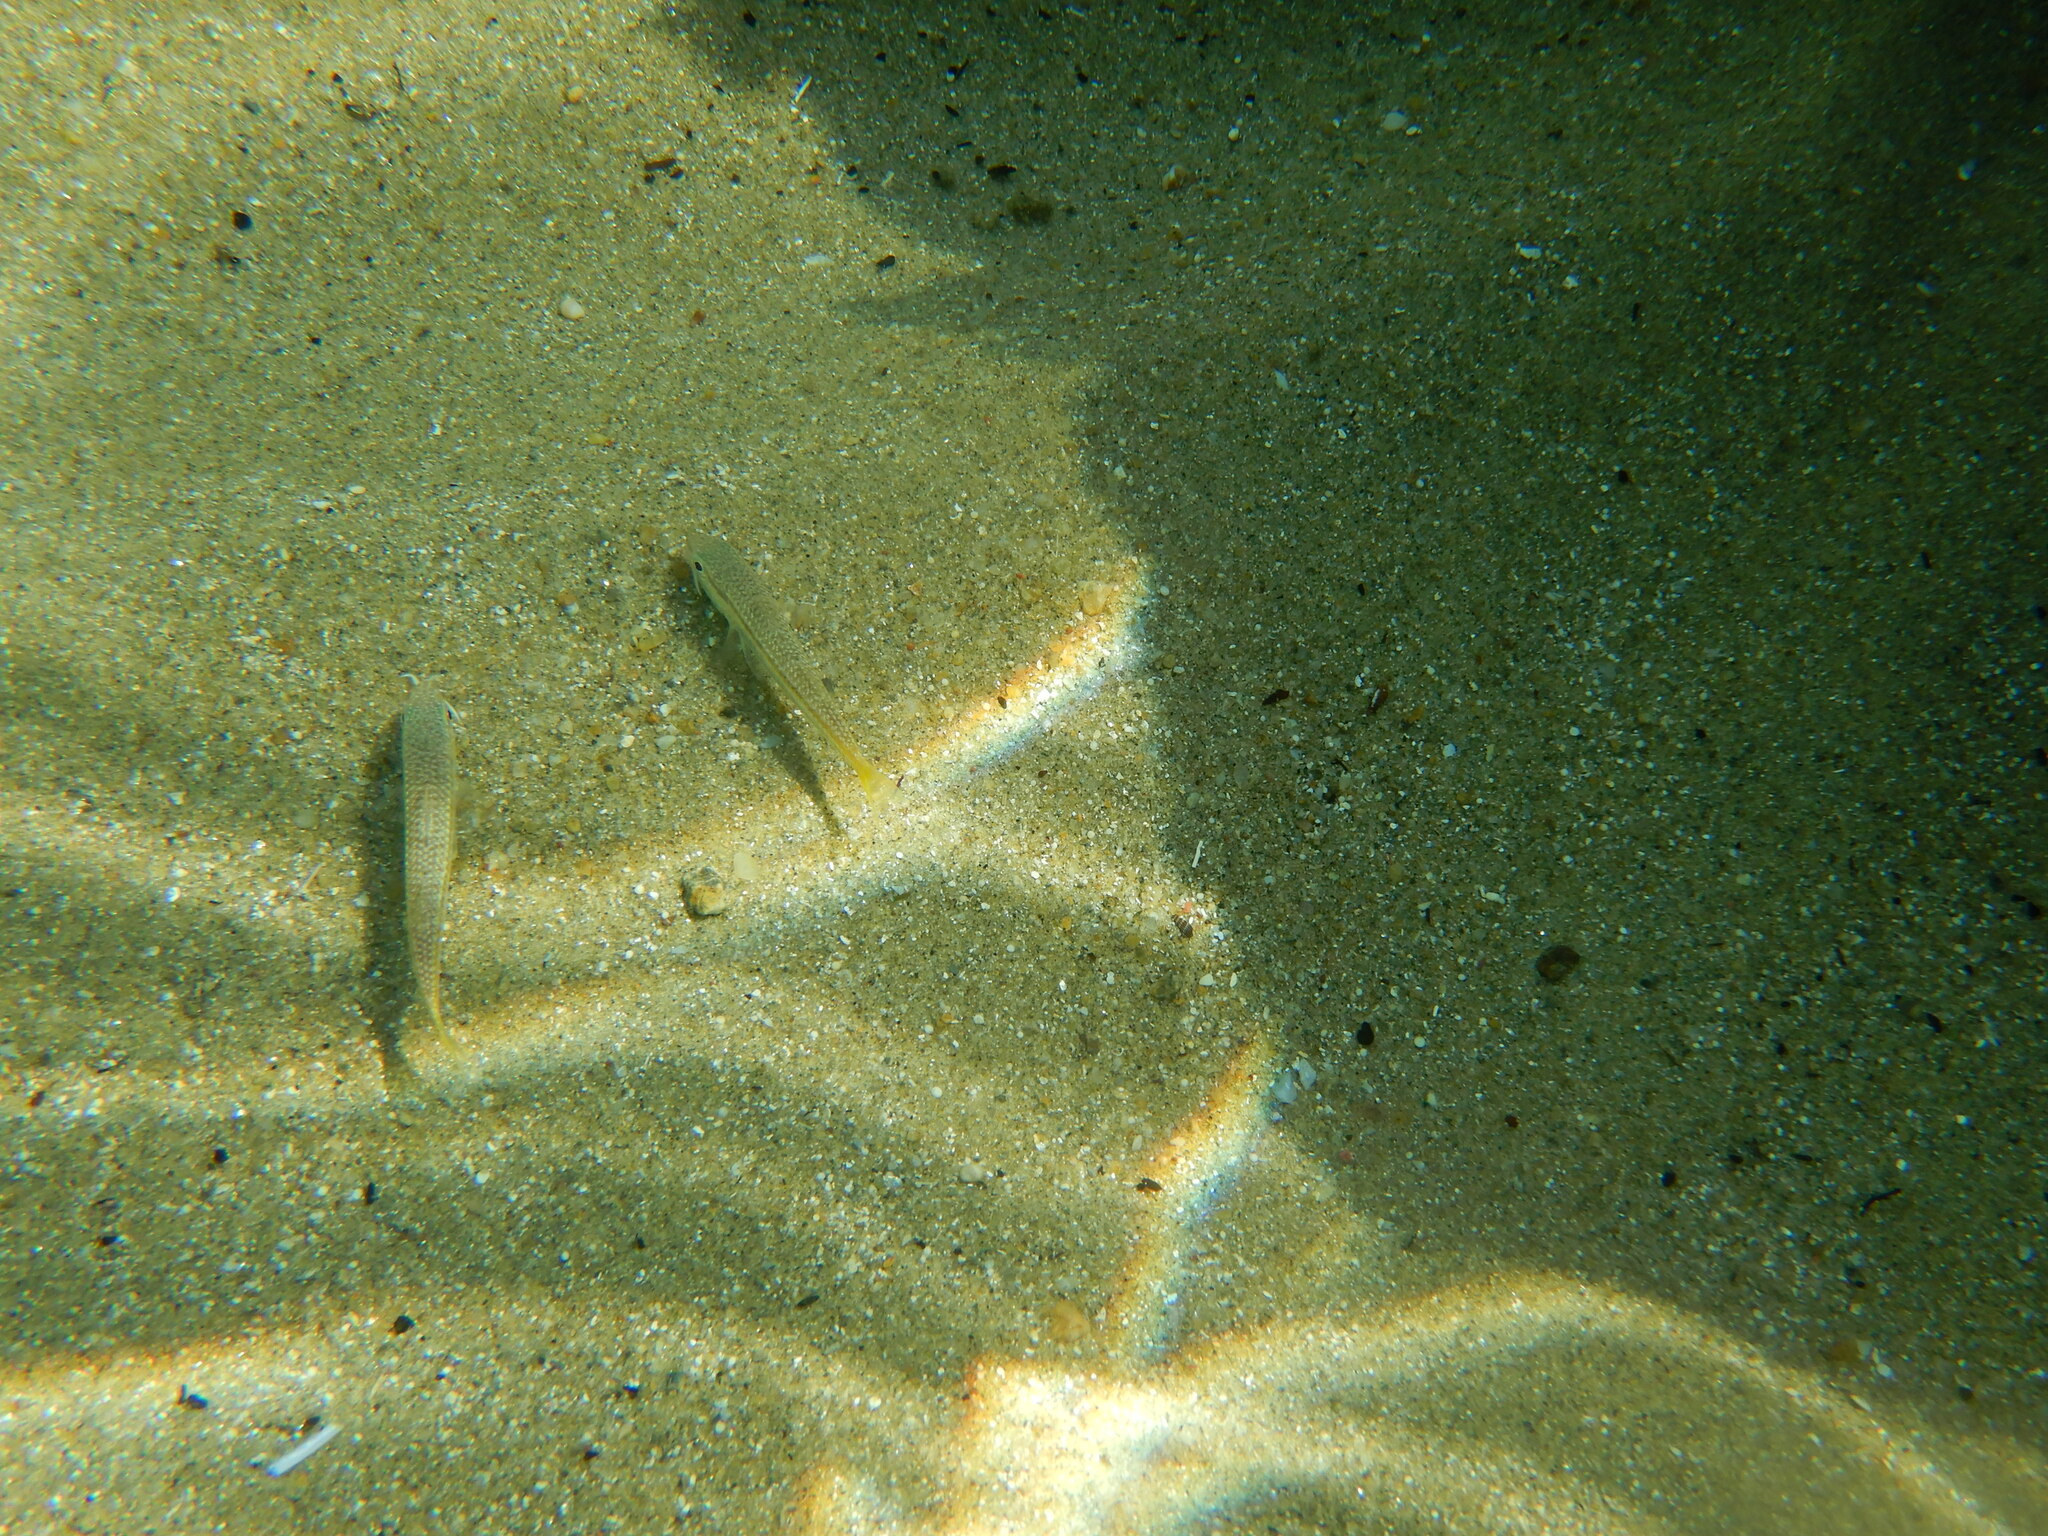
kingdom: Animalia
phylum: Chordata
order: Perciformes
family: Mullidae
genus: Mullus
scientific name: Mullus barbatus
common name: Blunt-snouted mullet
